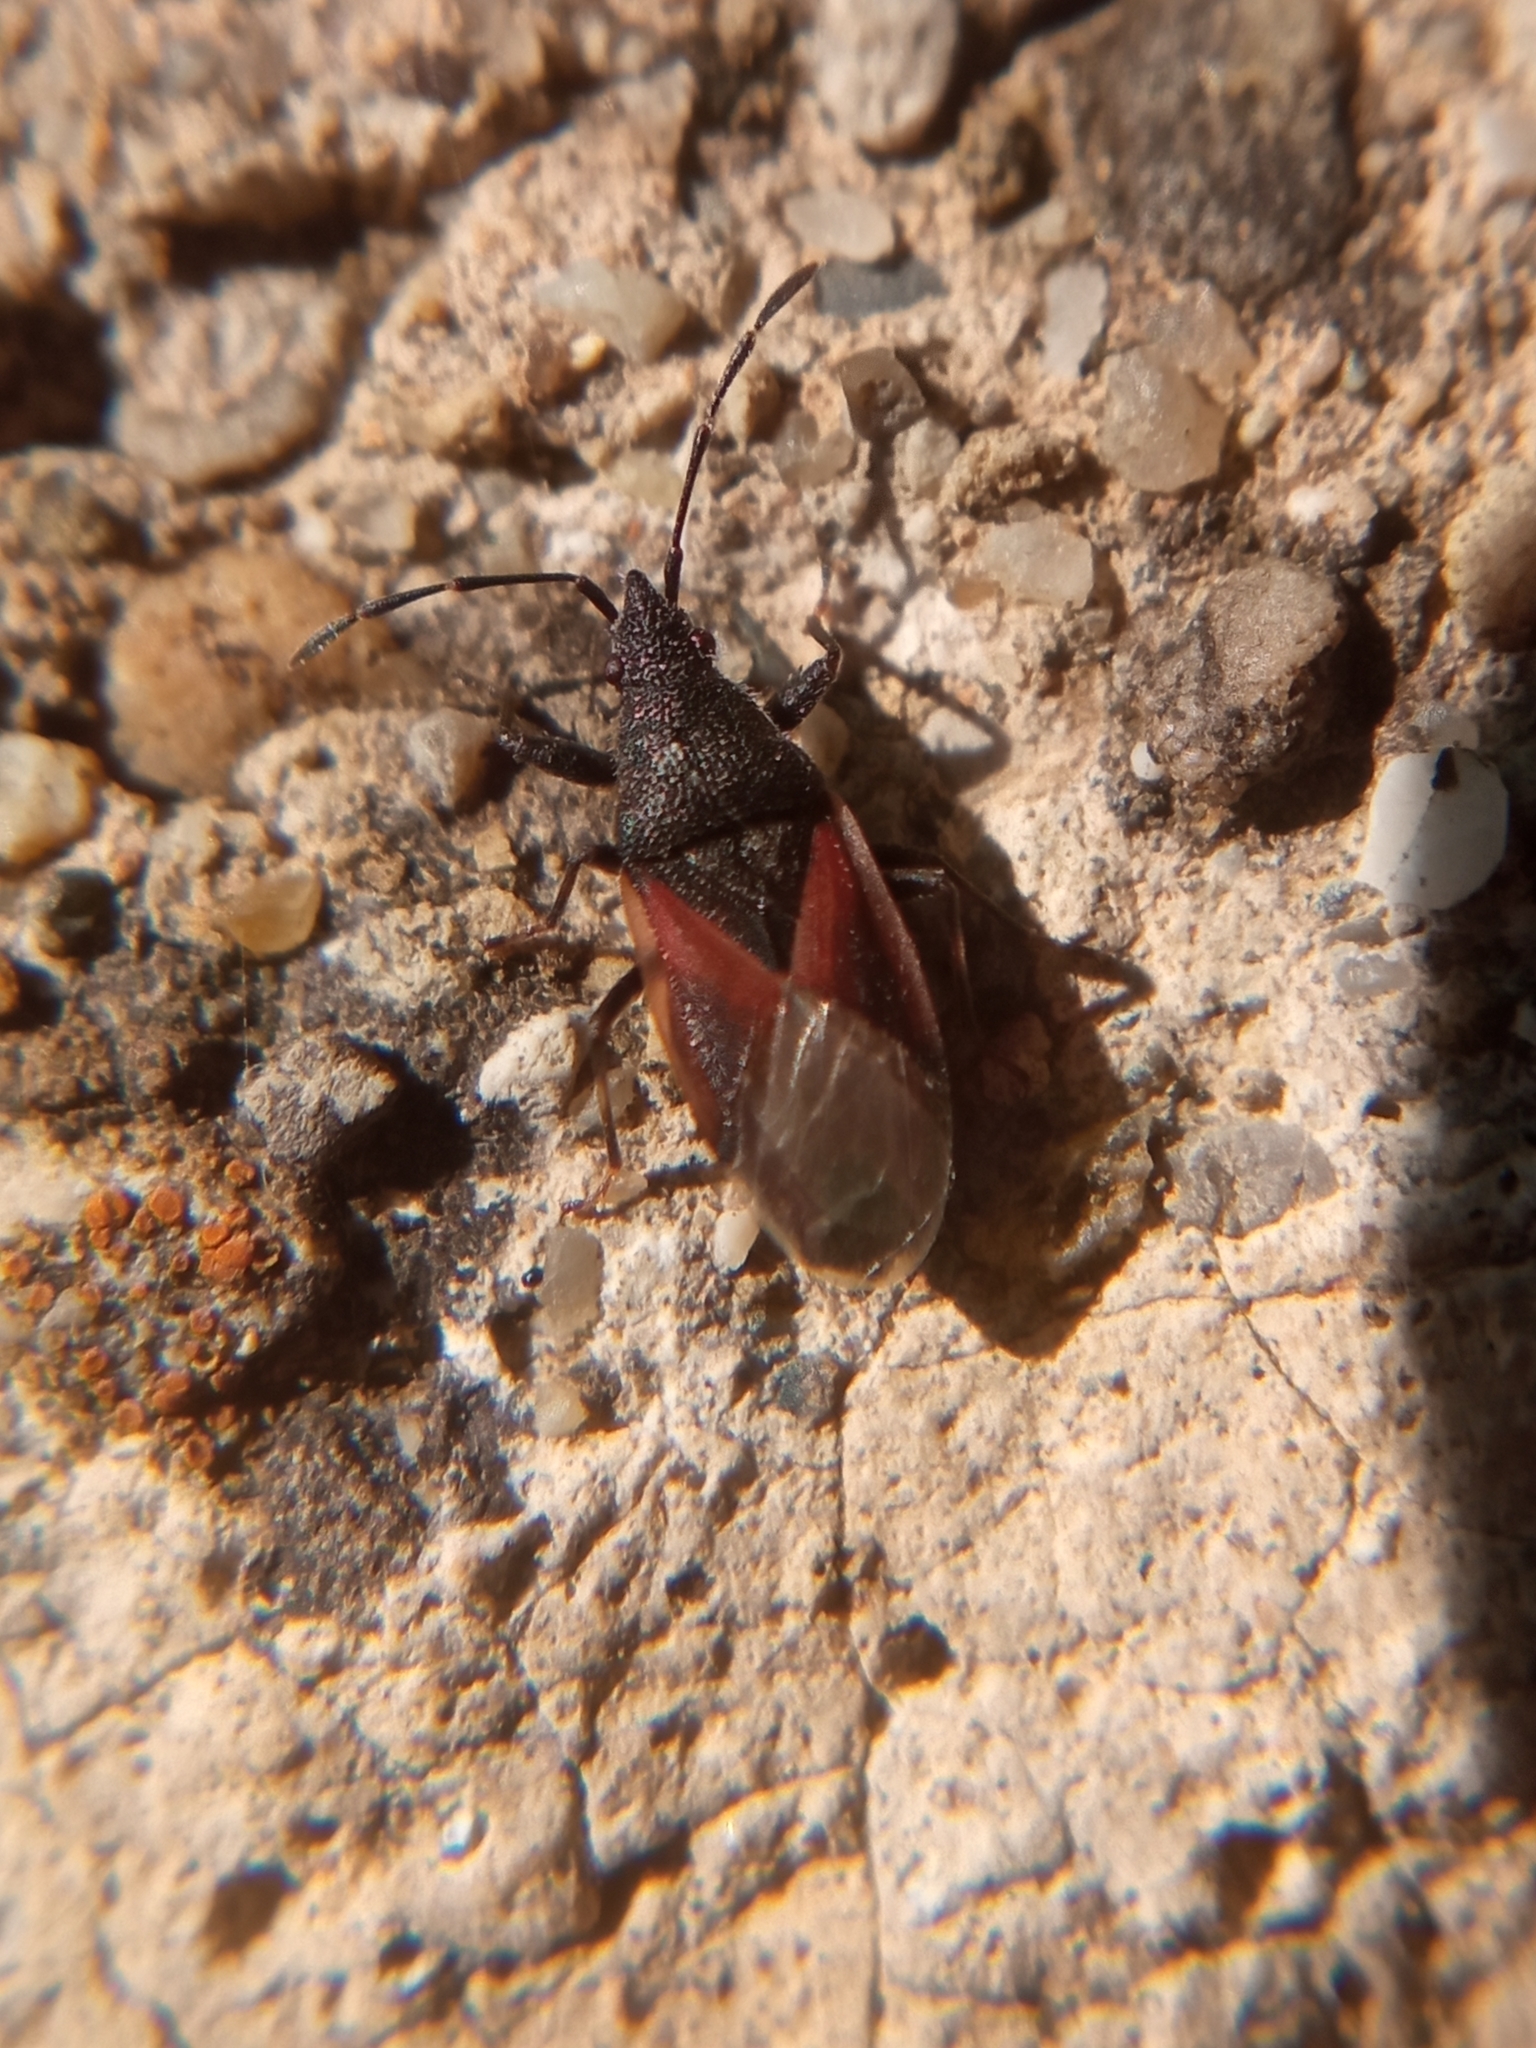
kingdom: Animalia
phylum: Arthropoda
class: Insecta
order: Hemiptera
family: Oxycarenidae
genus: Oxycarenus
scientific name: Oxycarenus lavaterae
